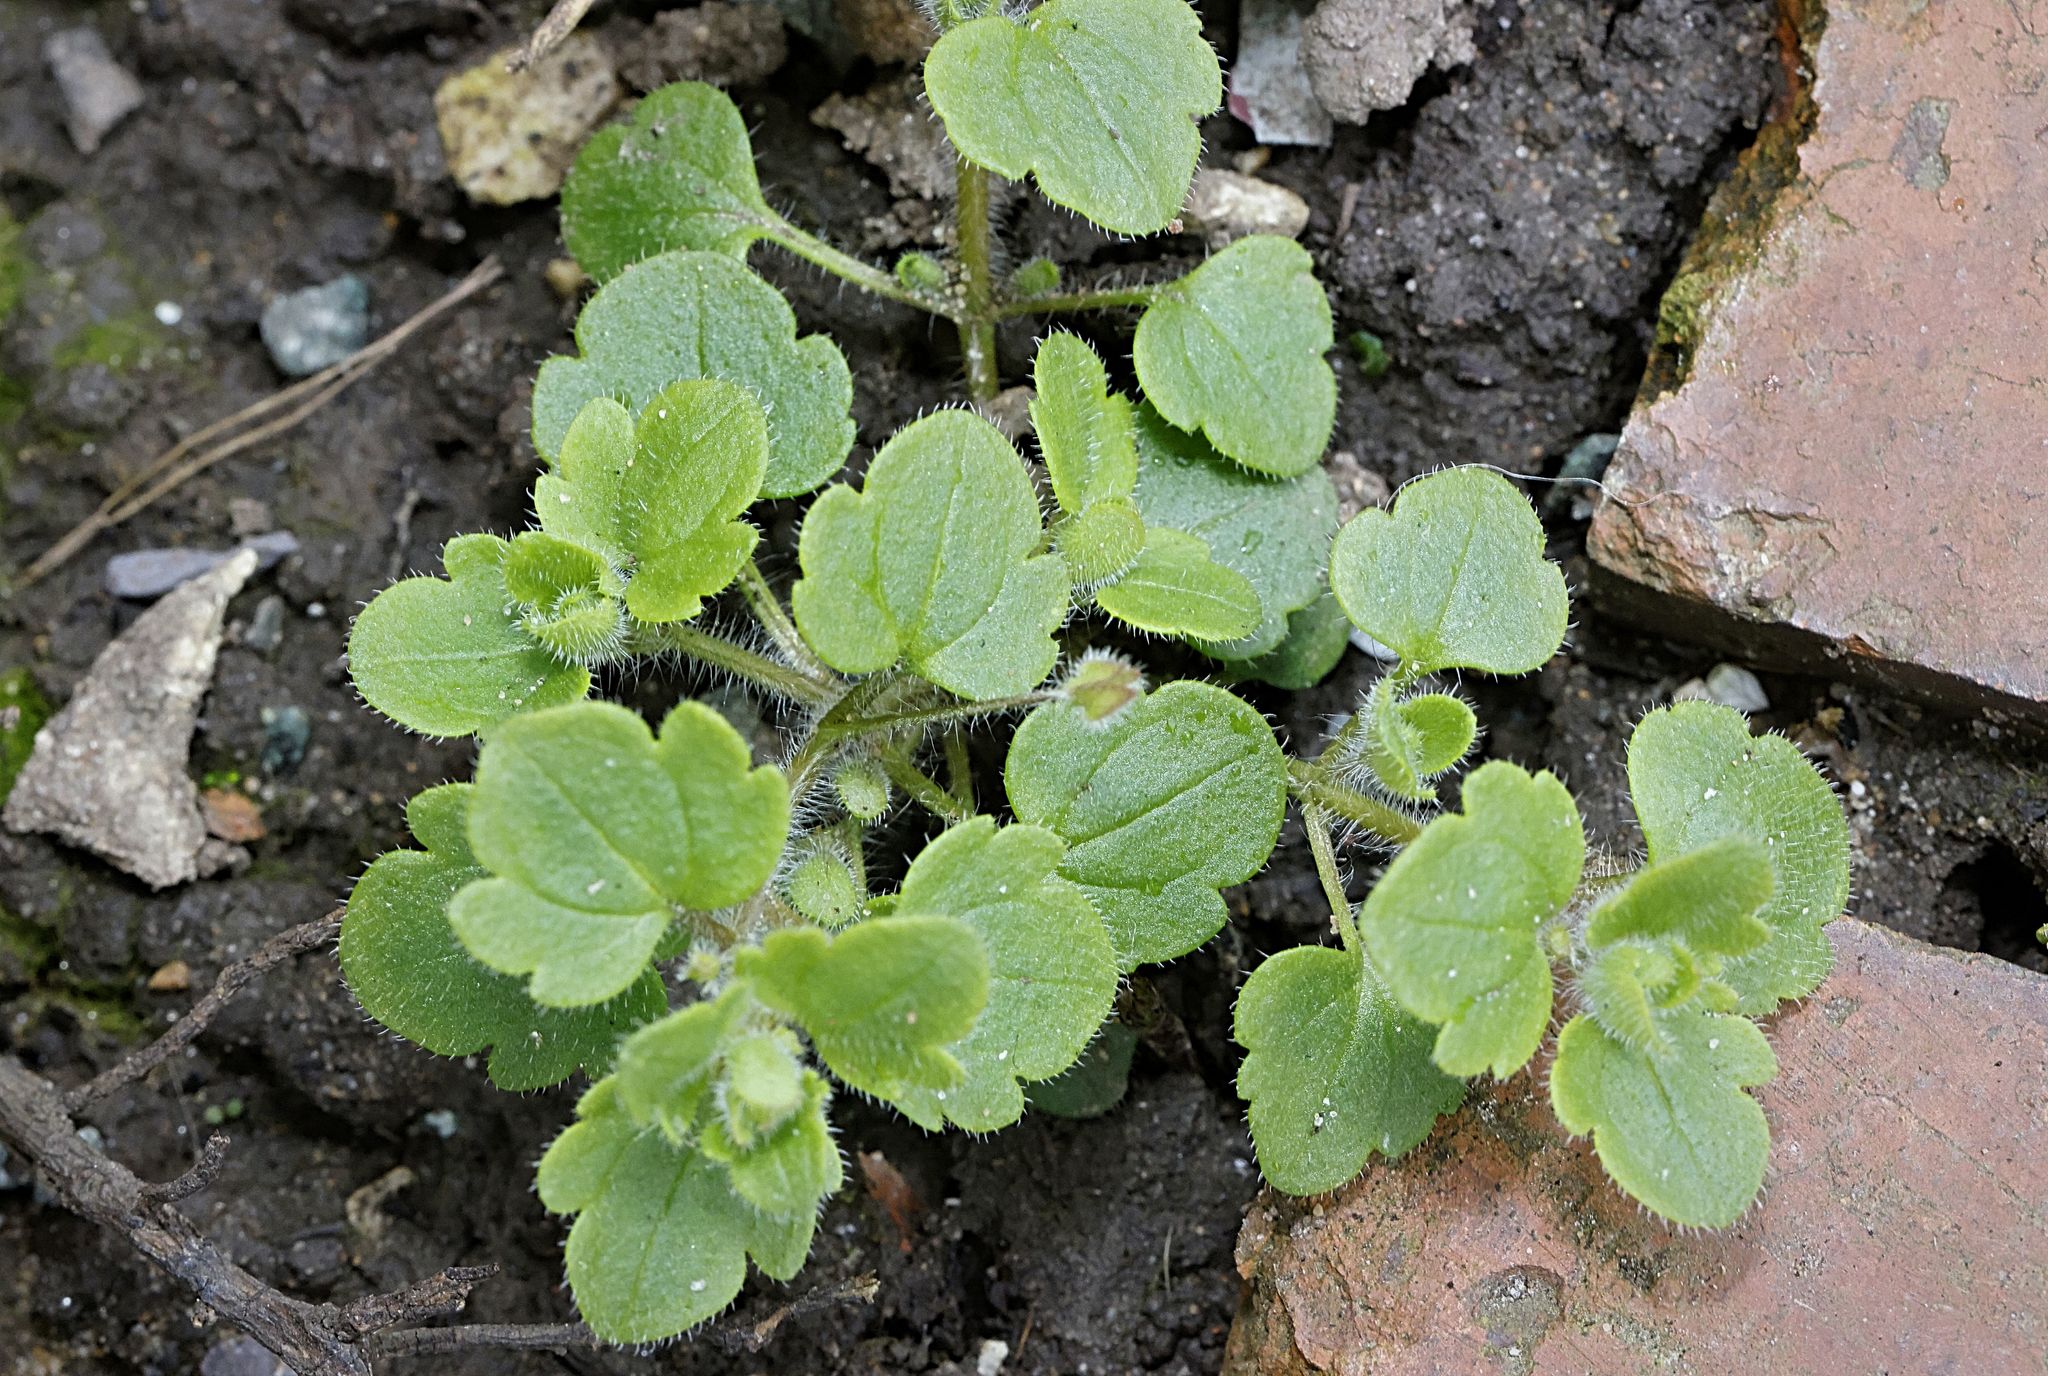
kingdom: Plantae
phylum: Tracheophyta
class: Magnoliopsida
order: Lamiales
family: Plantaginaceae
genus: Veronica
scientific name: Veronica sublobata
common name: False ivy-leaved speedwell
